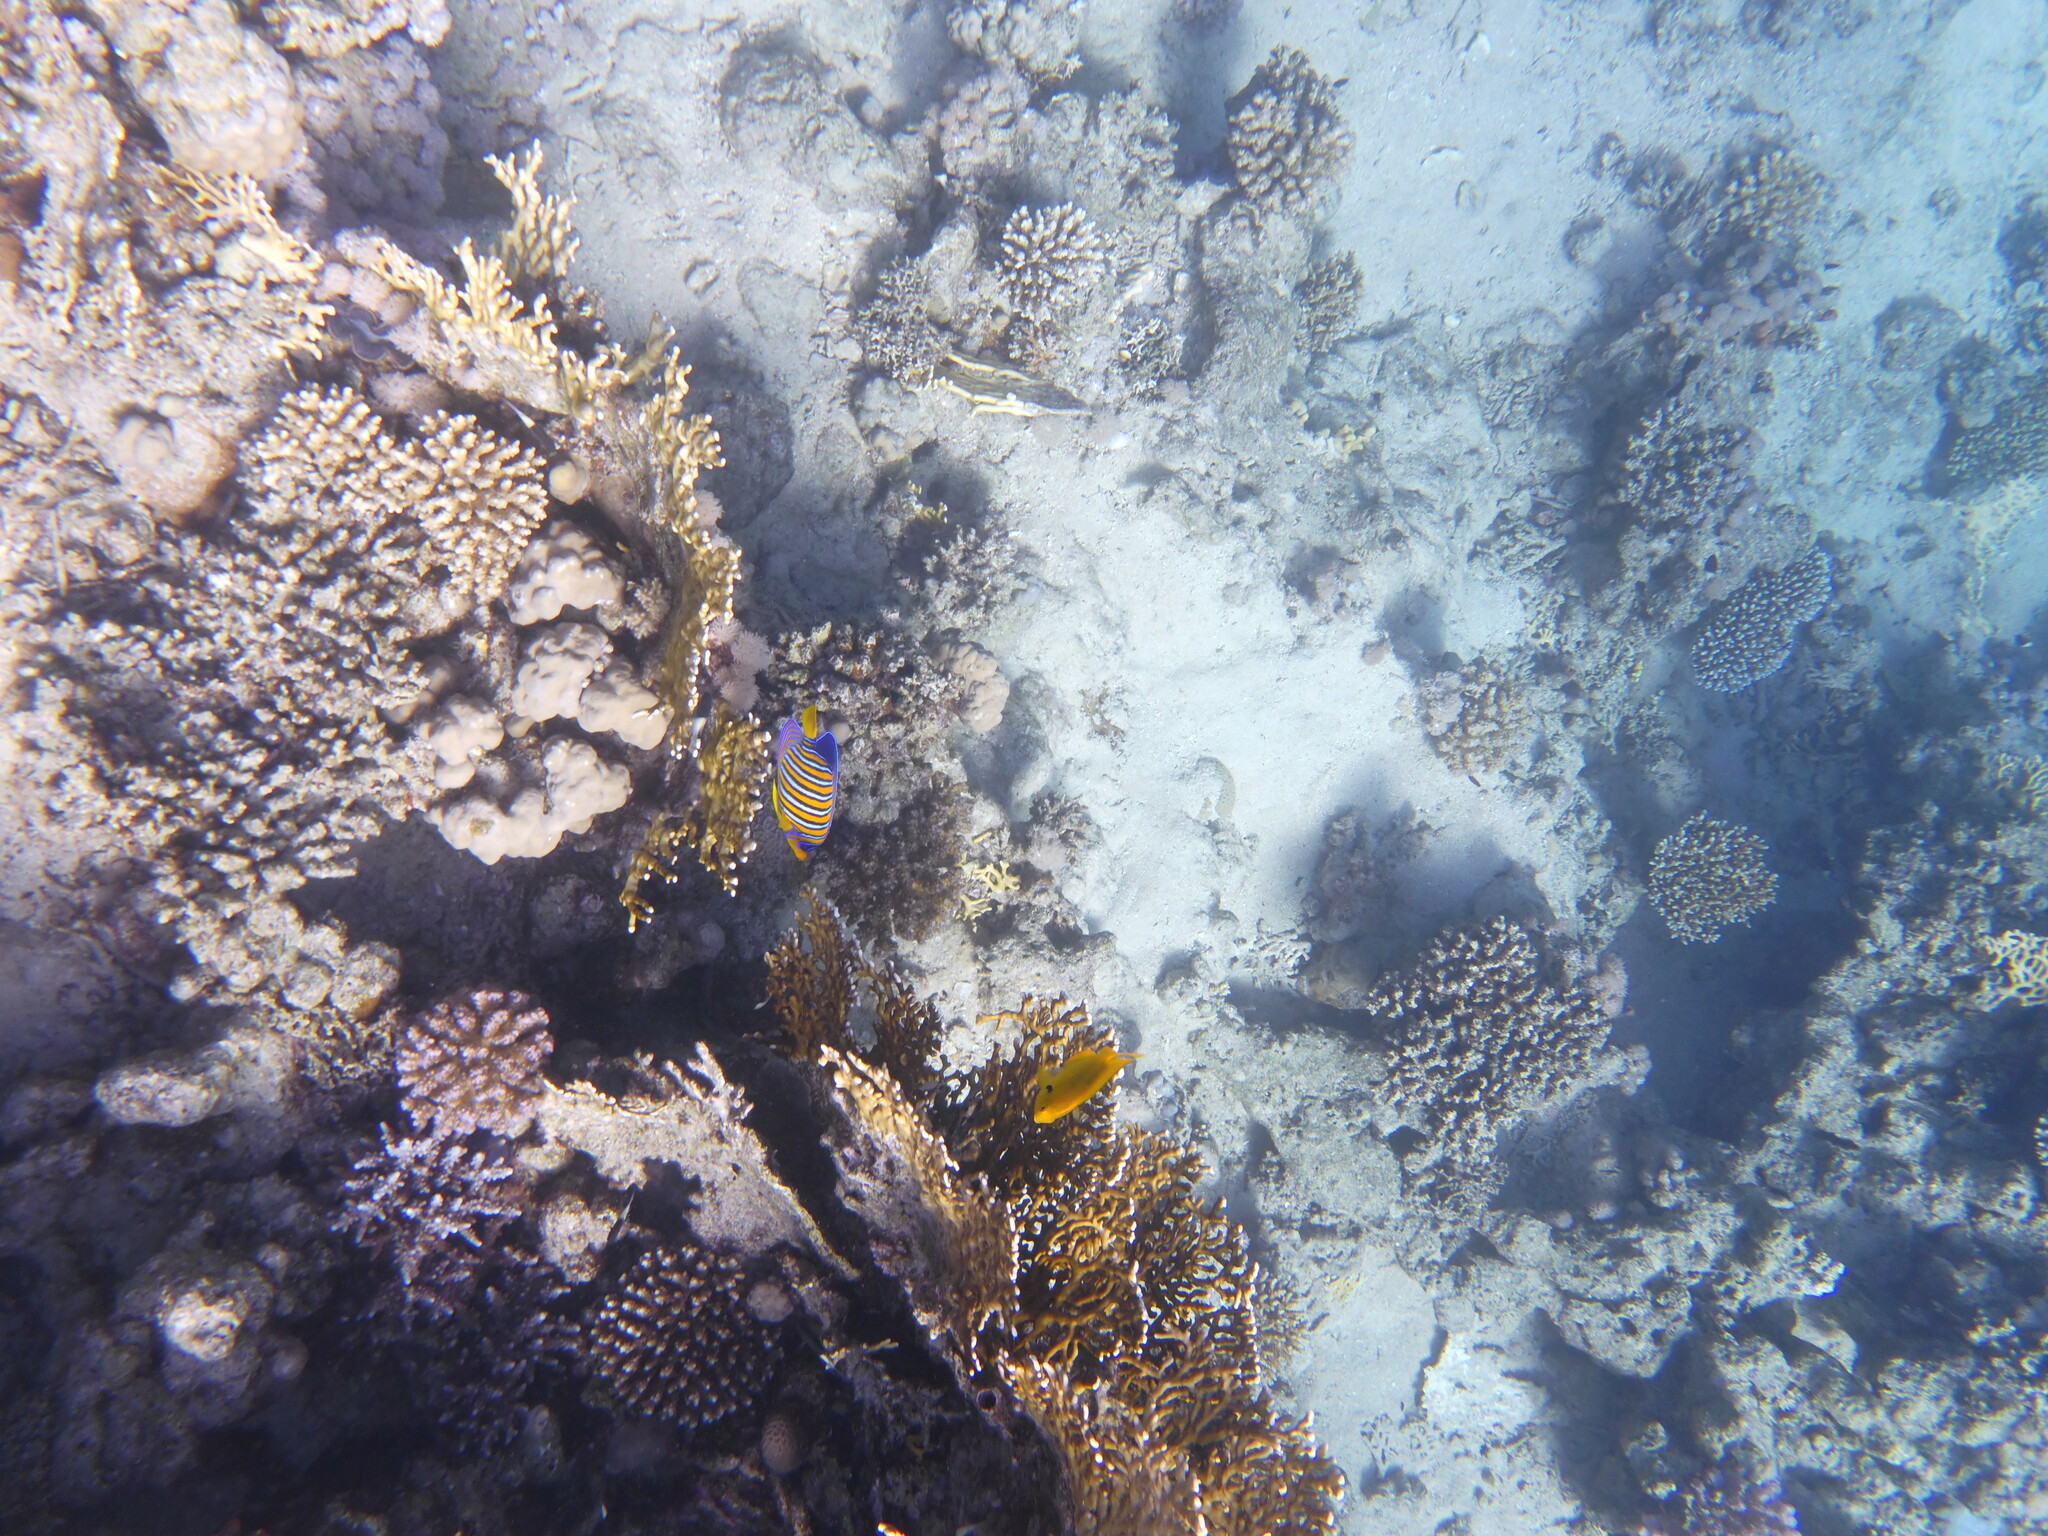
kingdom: Animalia
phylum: Chordata
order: Perciformes
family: Pomacanthidae
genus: Pygoplites
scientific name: Pygoplites diacanthus
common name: Regal angelfish
